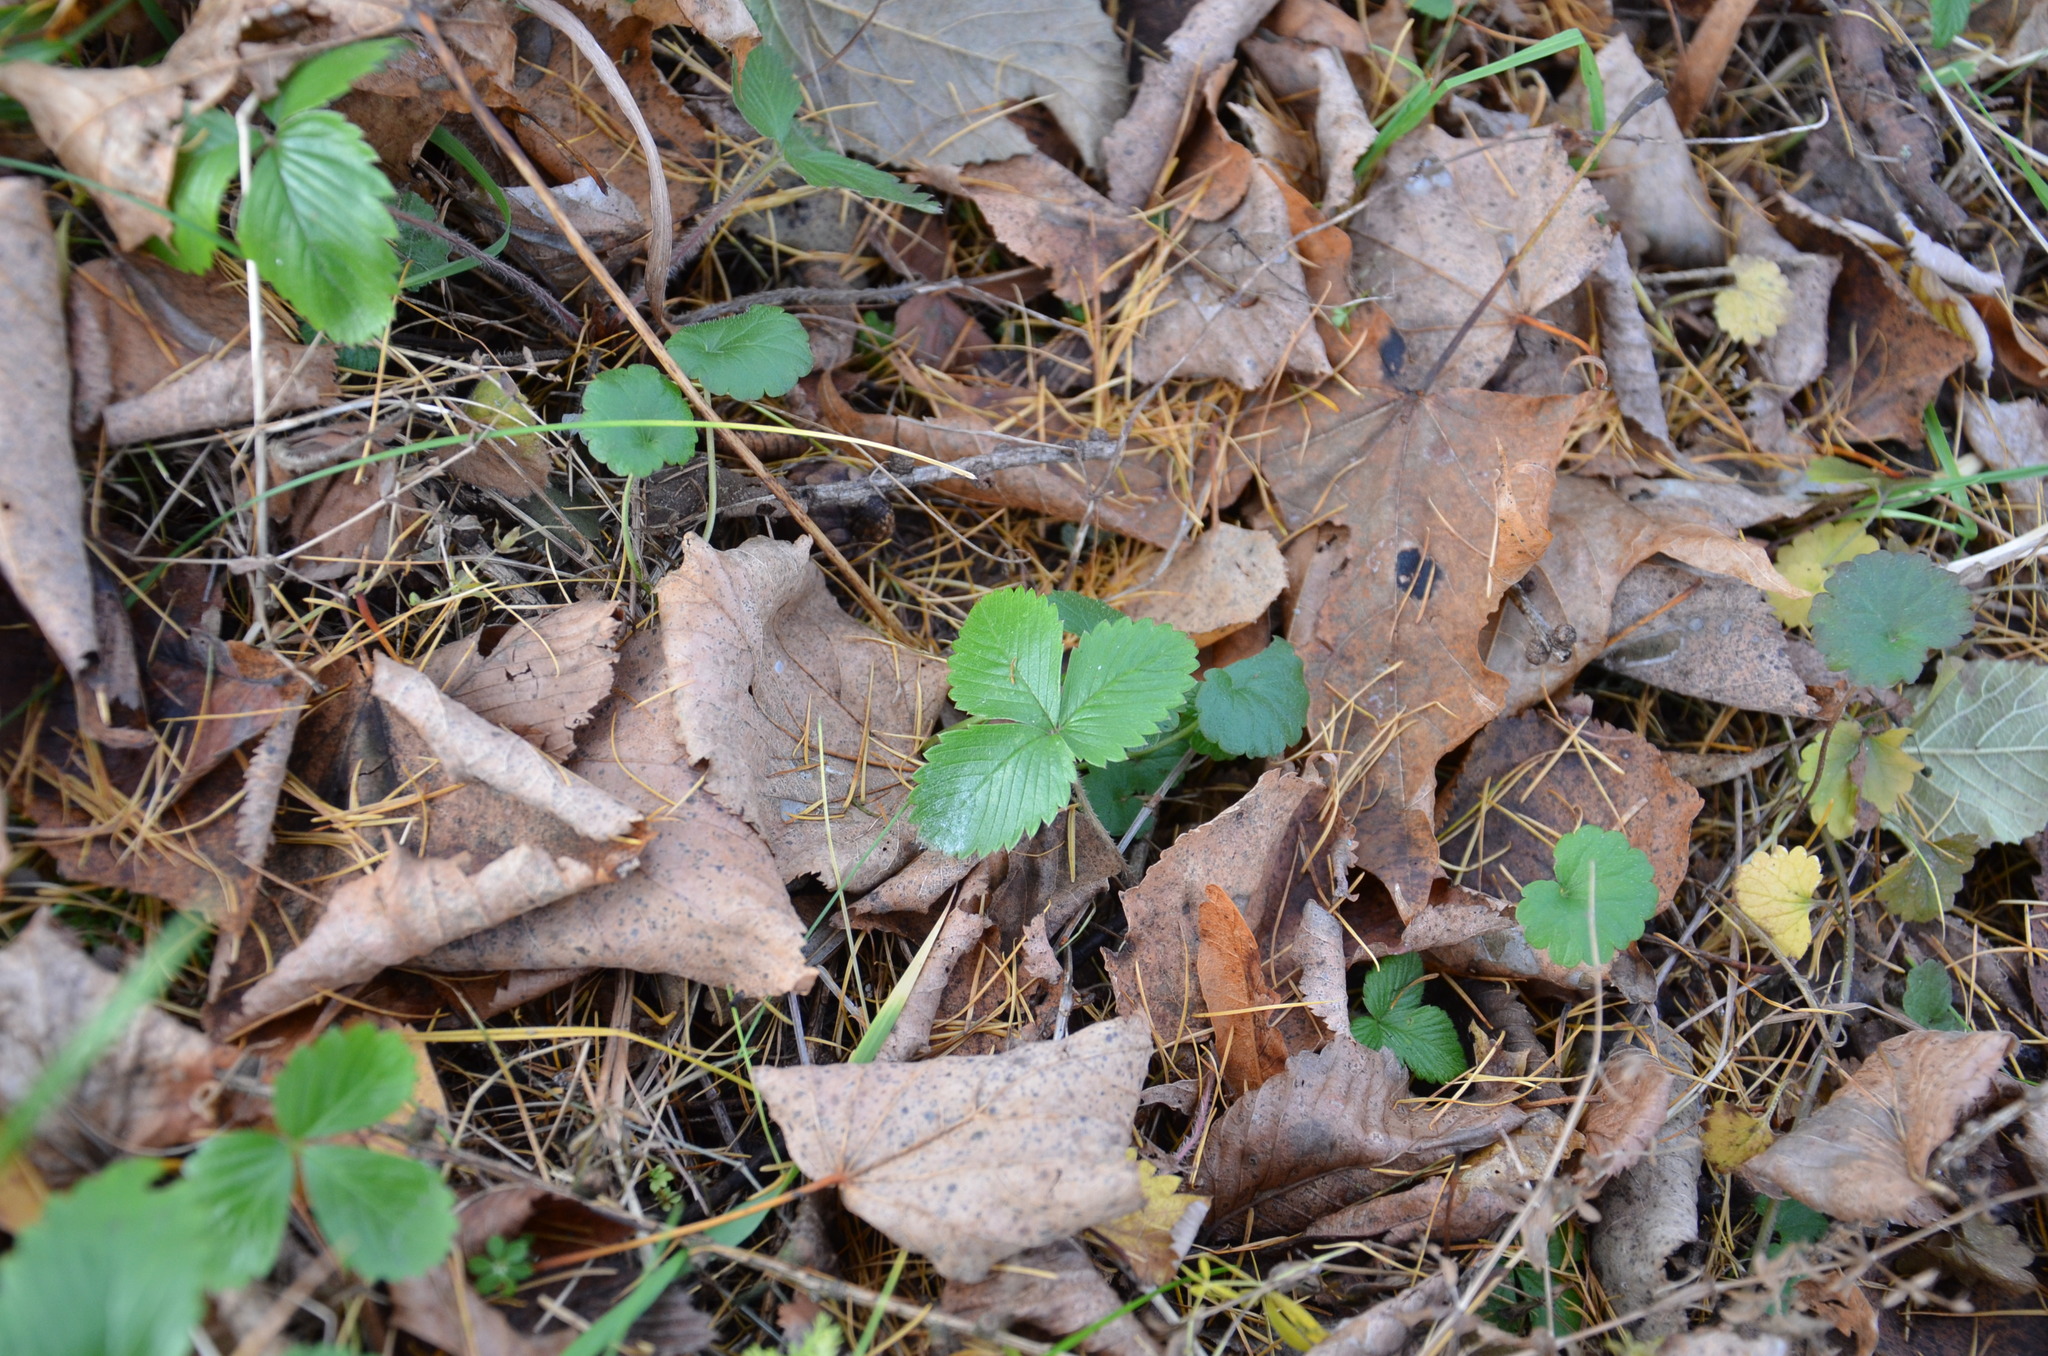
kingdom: Plantae
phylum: Tracheophyta
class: Magnoliopsida
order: Rosales
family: Rosaceae
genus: Fragaria
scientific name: Fragaria vesca
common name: Wild strawberry
